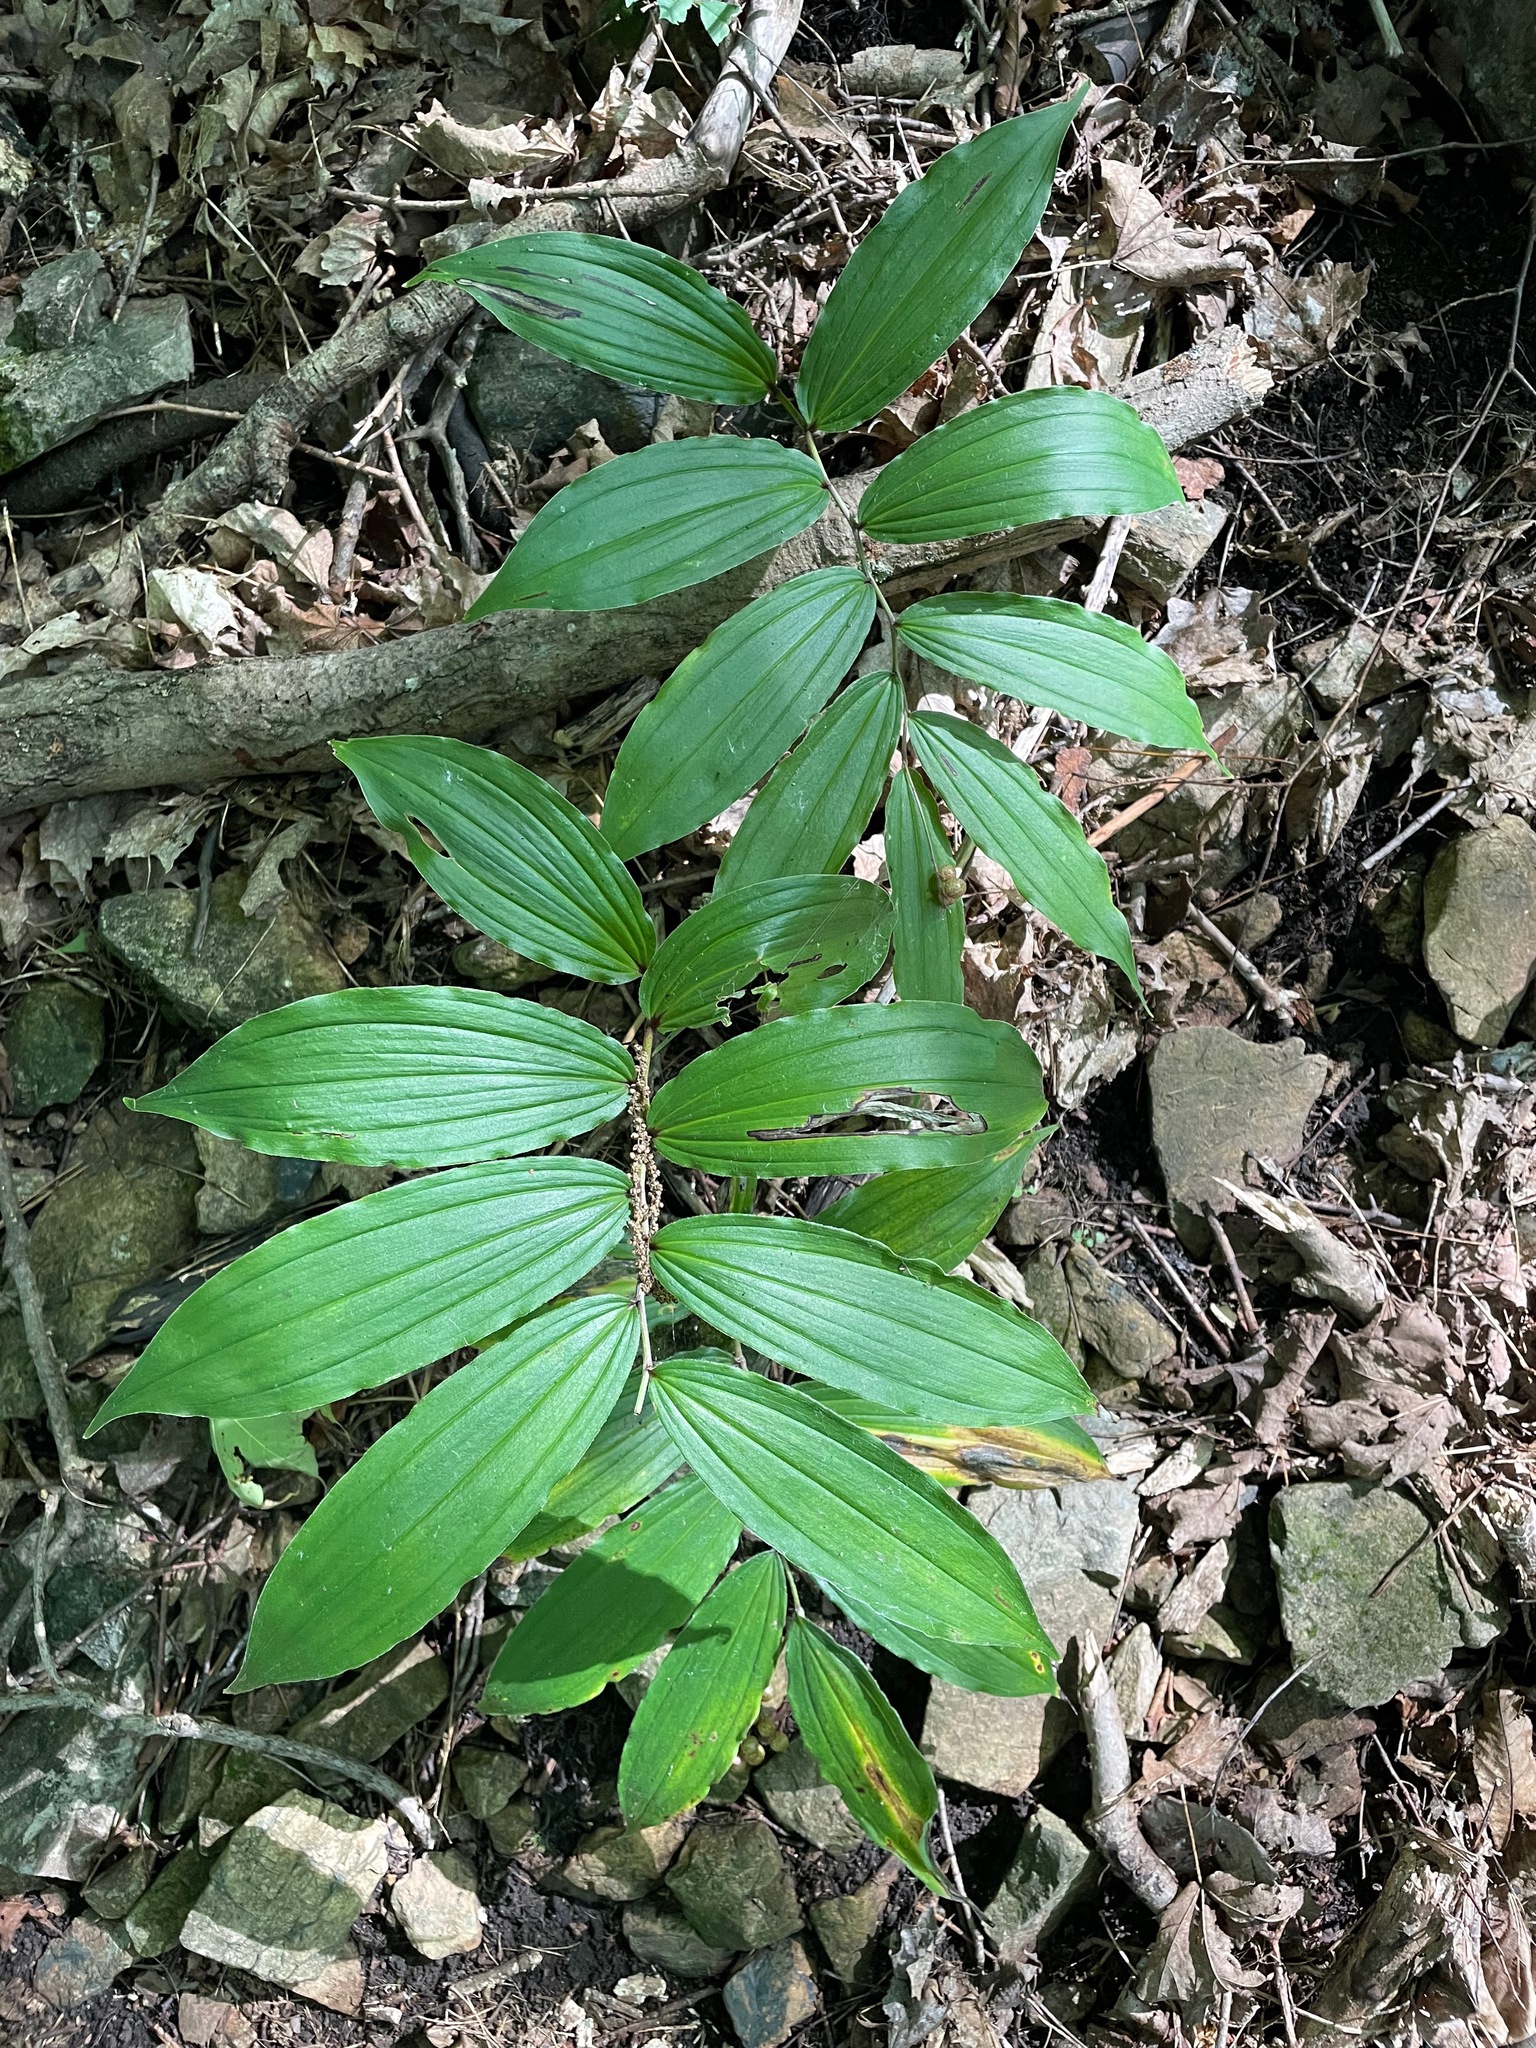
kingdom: Plantae
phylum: Tracheophyta
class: Liliopsida
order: Asparagales
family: Asparagaceae
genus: Maianthemum
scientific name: Maianthemum racemosum
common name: False spikenard
